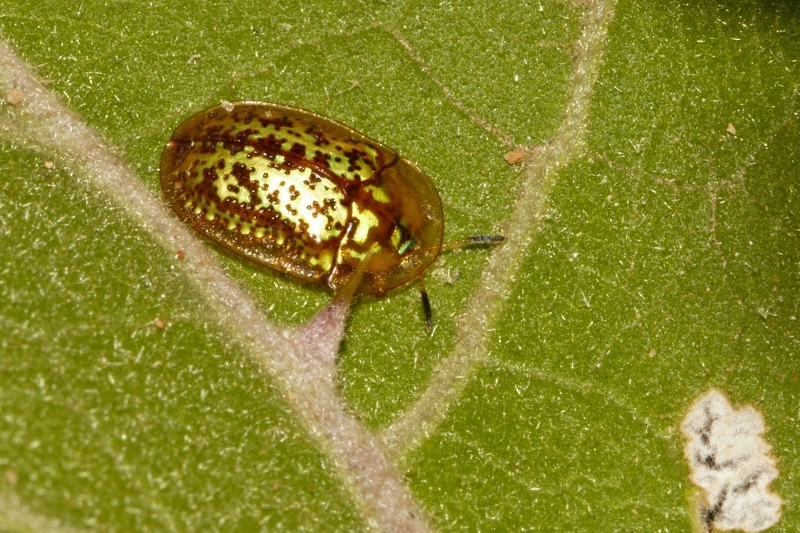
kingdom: Animalia
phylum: Arthropoda
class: Insecta
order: Coleoptera
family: Chrysomelidae
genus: Conchyloctenia
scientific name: Conchyloctenia hybrida
